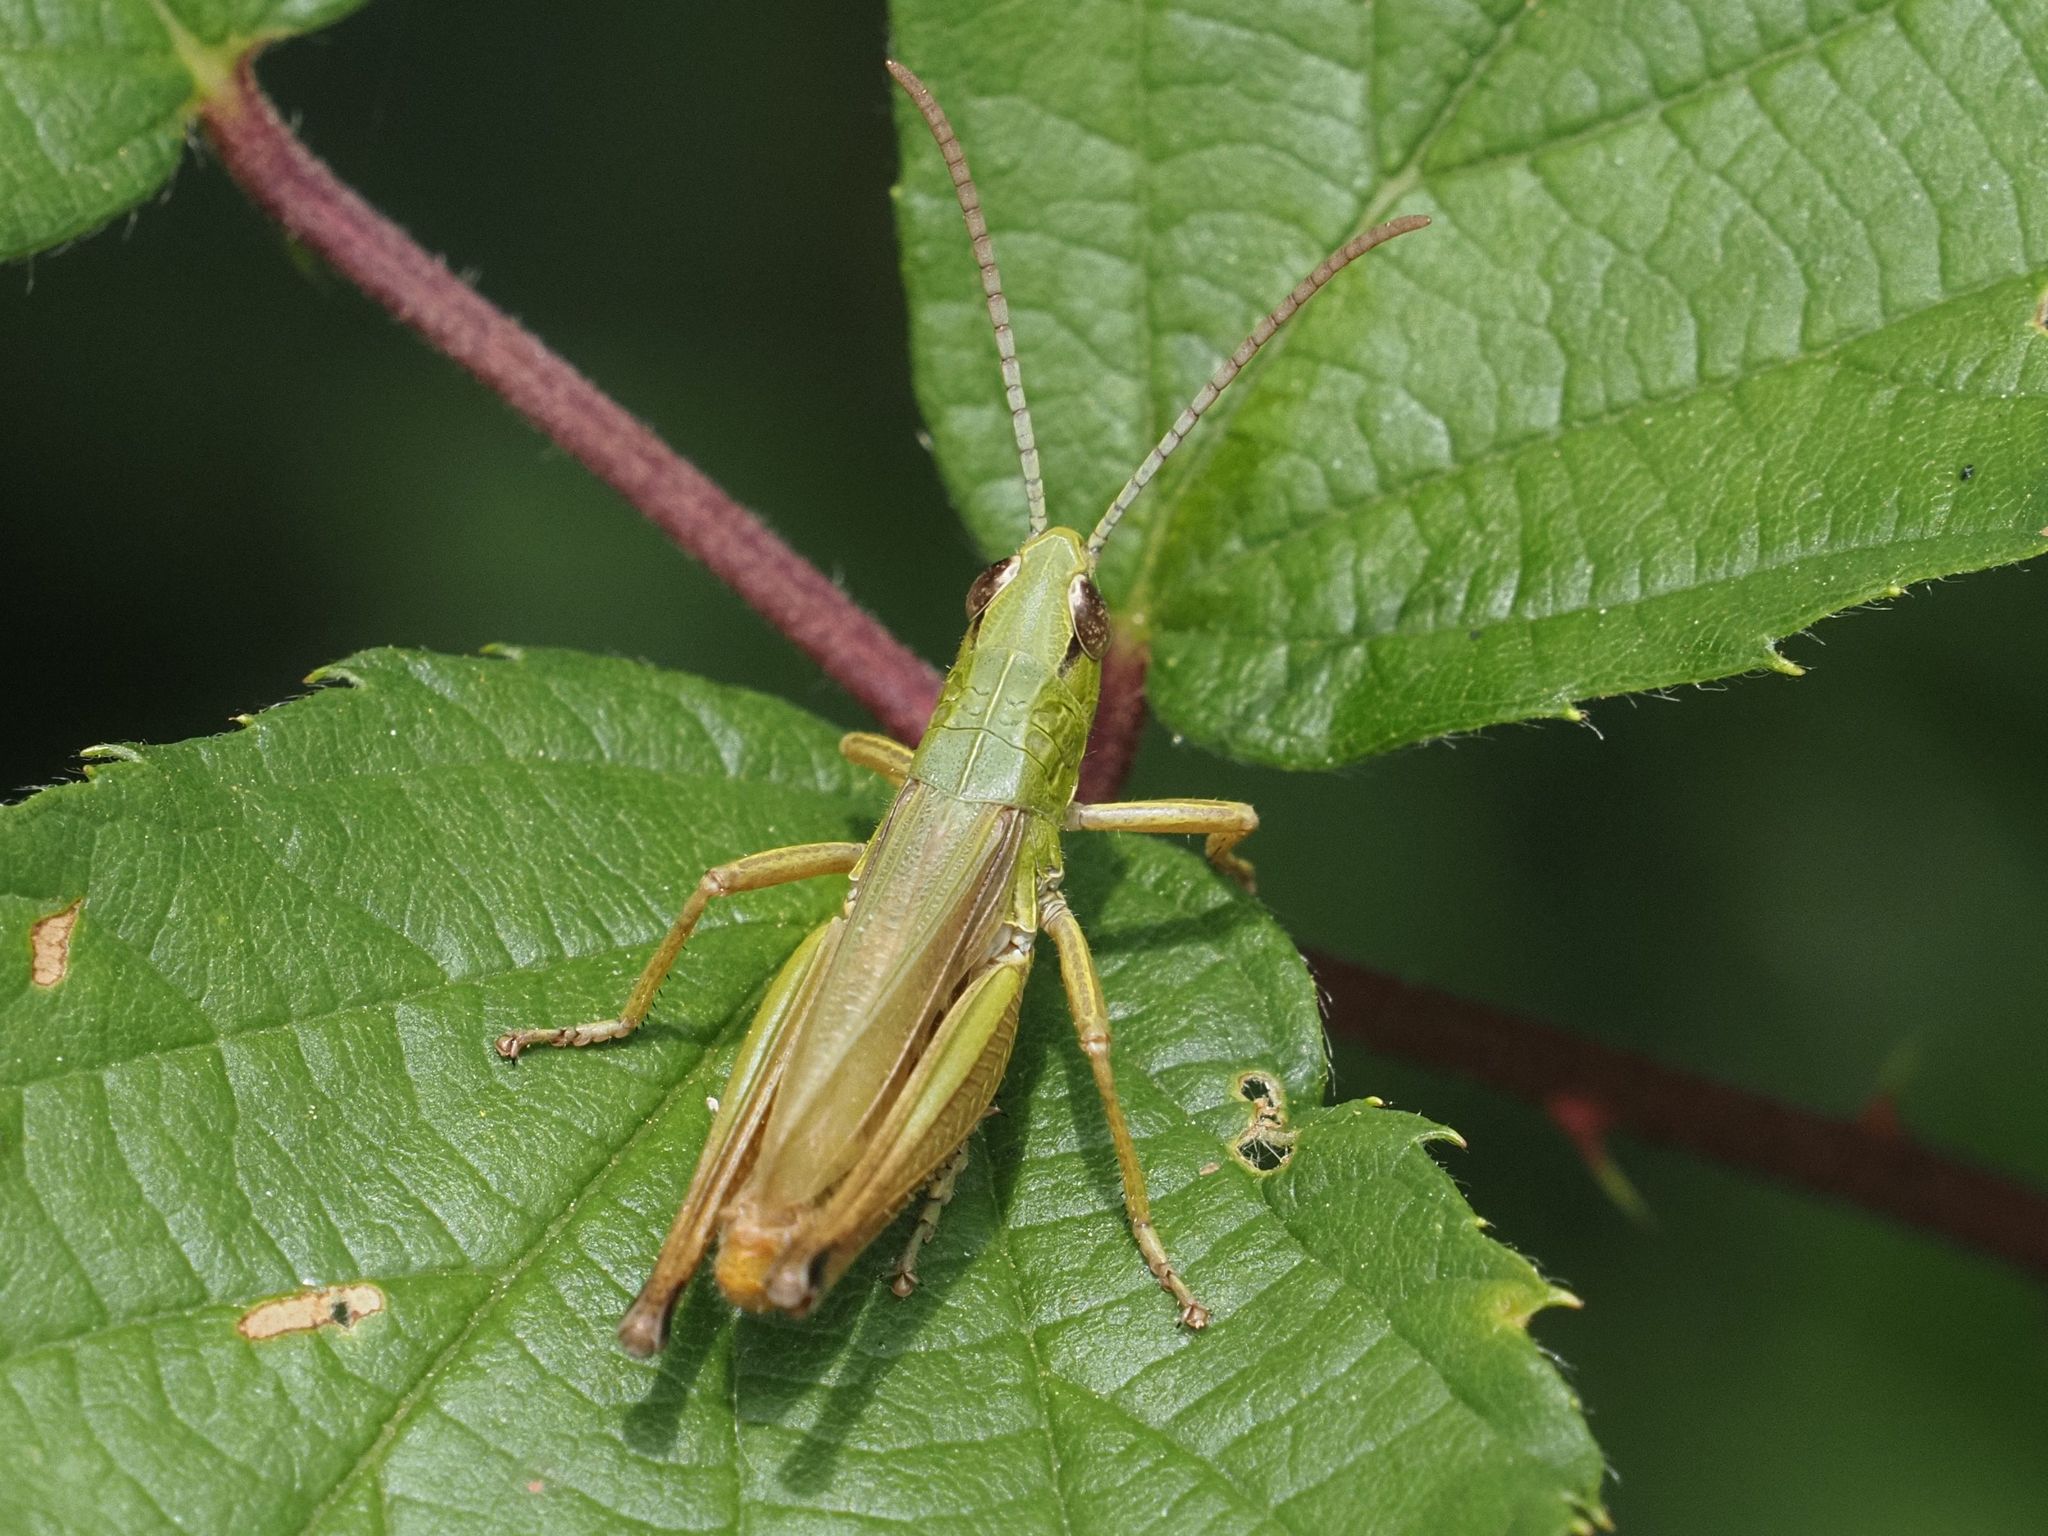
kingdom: Animalia
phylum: Arthropoda
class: Insecta
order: Orthoptera
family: Acrididae
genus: Pseudochorthippus
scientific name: Pseudochorthippus parallelus
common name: Meadow grasshopper
